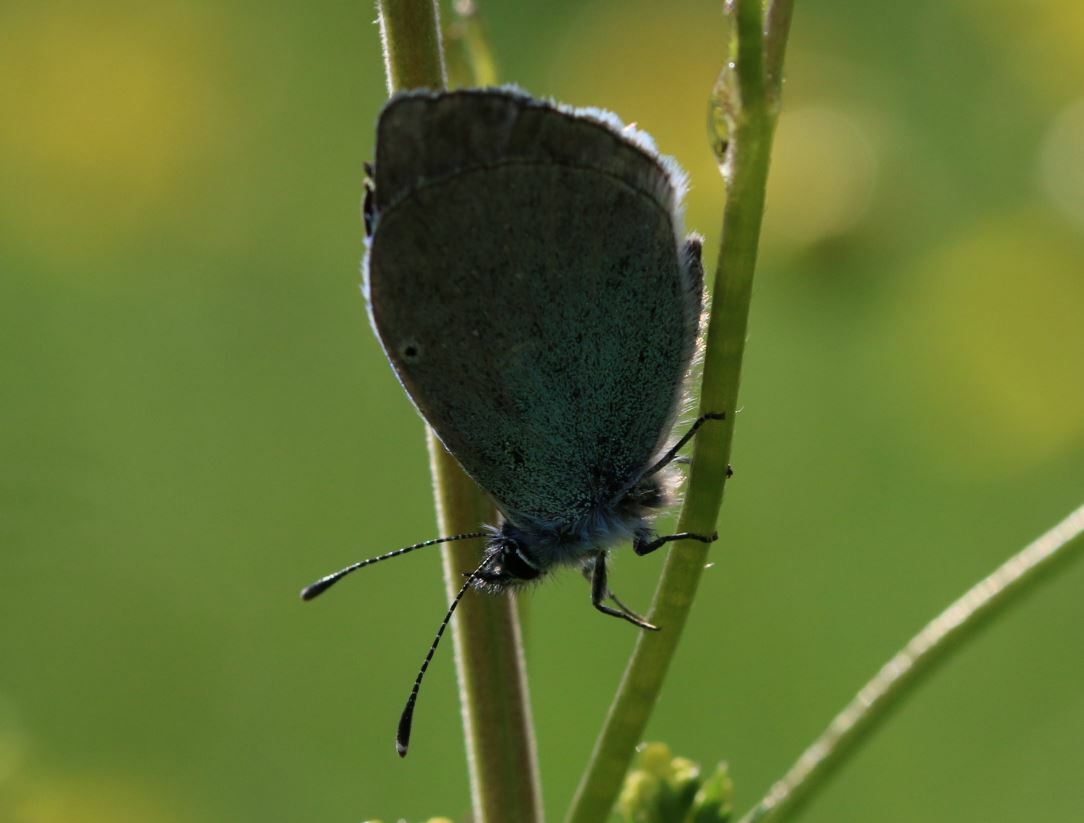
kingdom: Animalia
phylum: Arthropoda
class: Insecta
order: Lepidoptera
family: Lycaenidae
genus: Glaucopsyche
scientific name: Glaucopsyche alexis
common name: Green-underside blue
